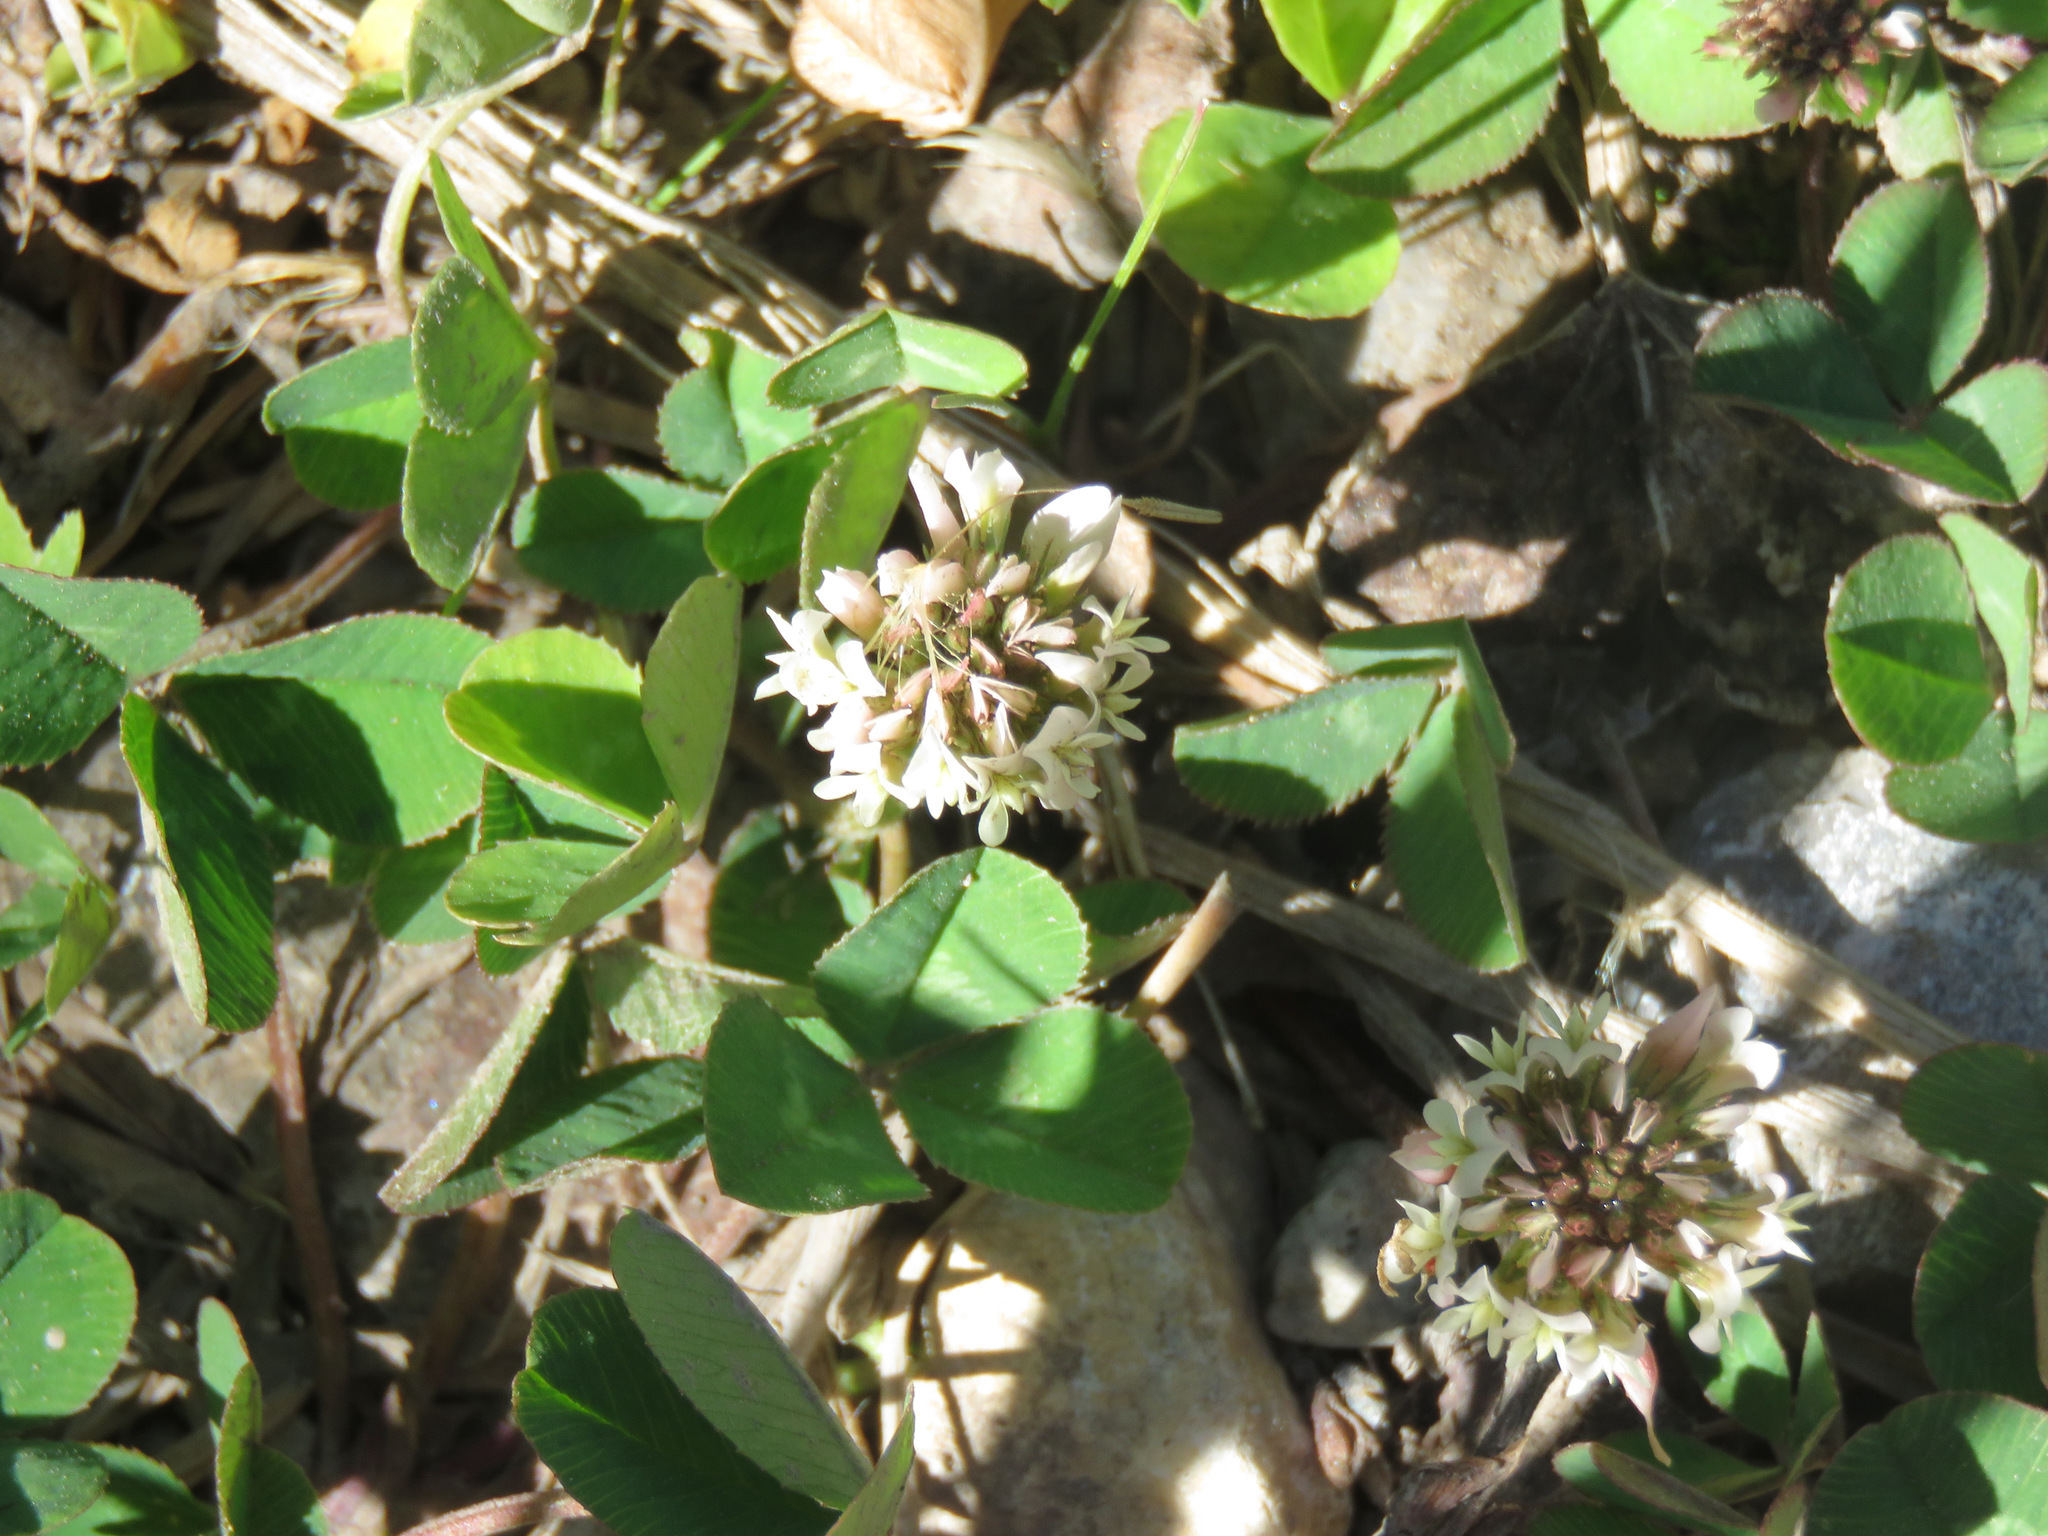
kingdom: Plantae
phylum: Tracheophyta
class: Magnoliopsida
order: Fabales
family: Fabaceae
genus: Trifolium
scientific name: Trifolium repens
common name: White clover
